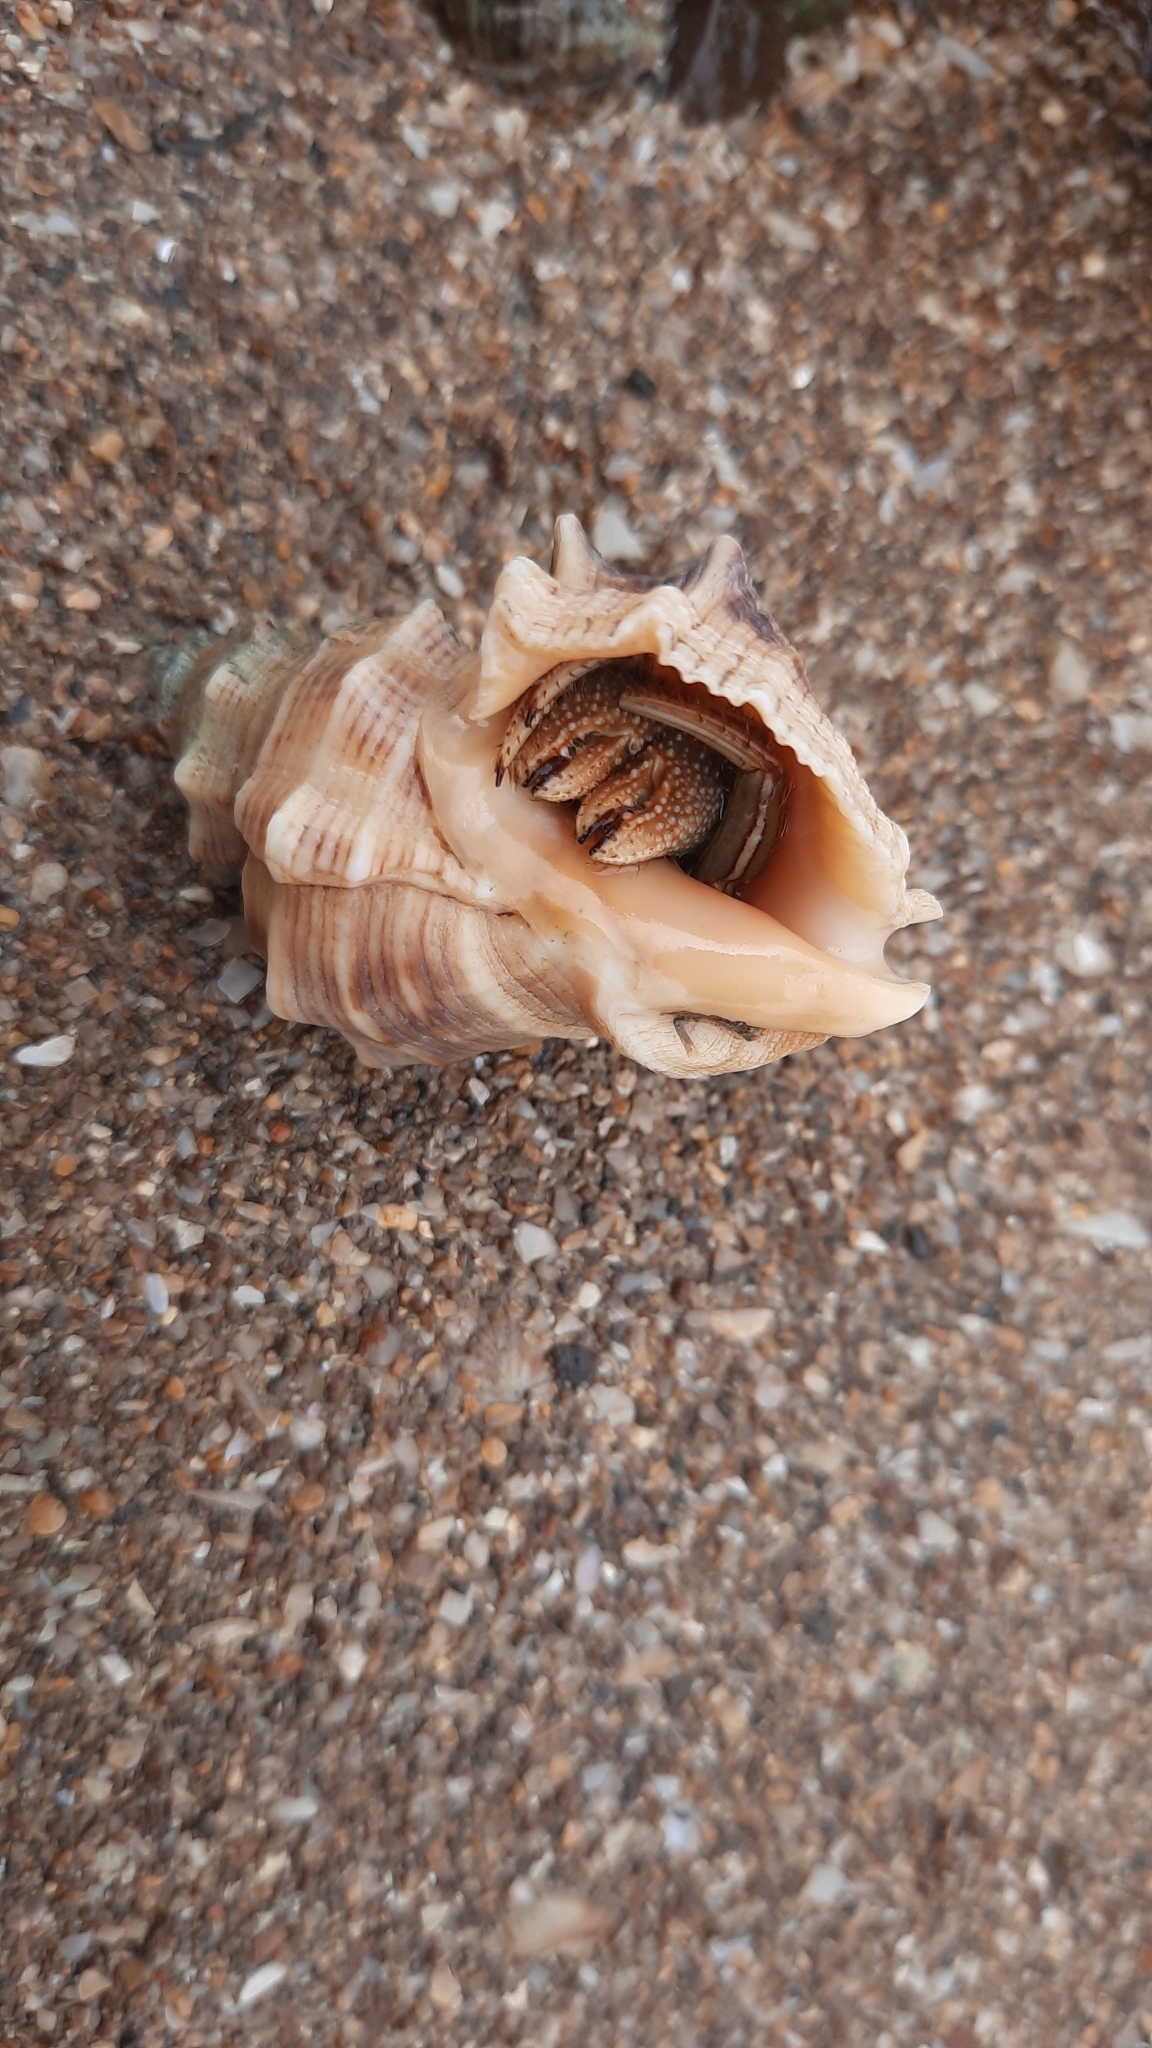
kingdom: Animalia
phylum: Arthropoda
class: Malacostraca
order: Decapoda
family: Diogenidae
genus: Clibanarius
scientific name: Clibanarius infraspinatus
